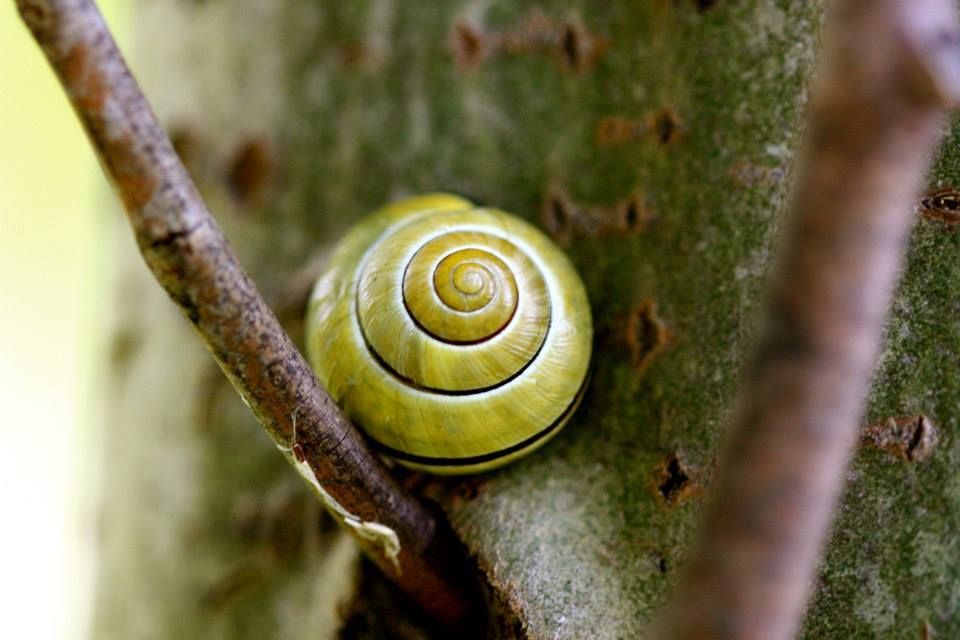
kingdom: Animalia
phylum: Mollusca
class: Gastropoda
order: Stylommatophora
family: Helicidae
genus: Cepaea
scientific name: Cepaea nemoralis
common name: Grovesnail
